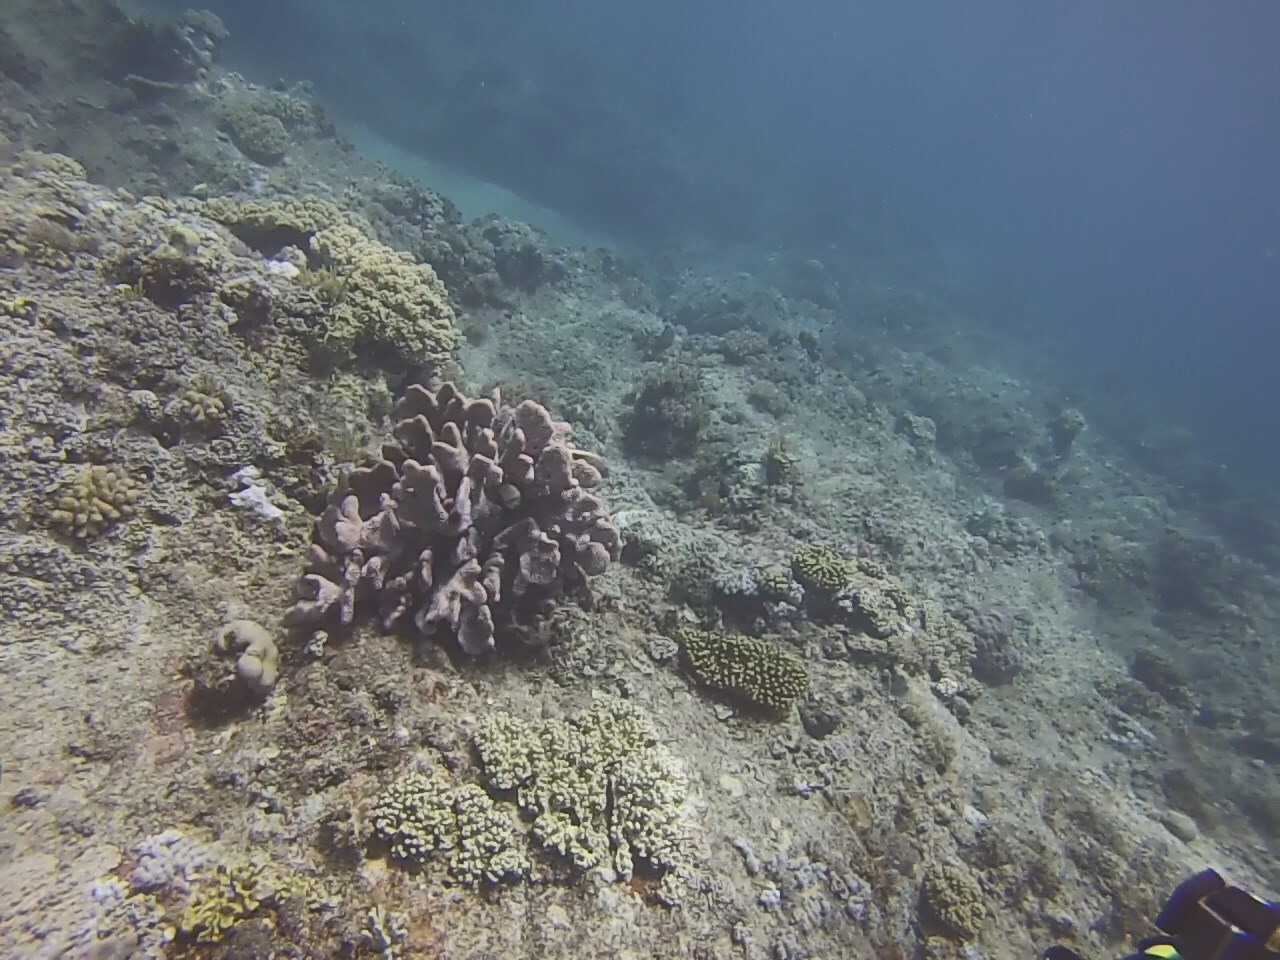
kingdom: Animalia
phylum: Cnidaria
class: Anthozoa
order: Scleractinia
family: Pocilloporidae
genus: Pocillopora
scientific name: Pocillopora grandis
